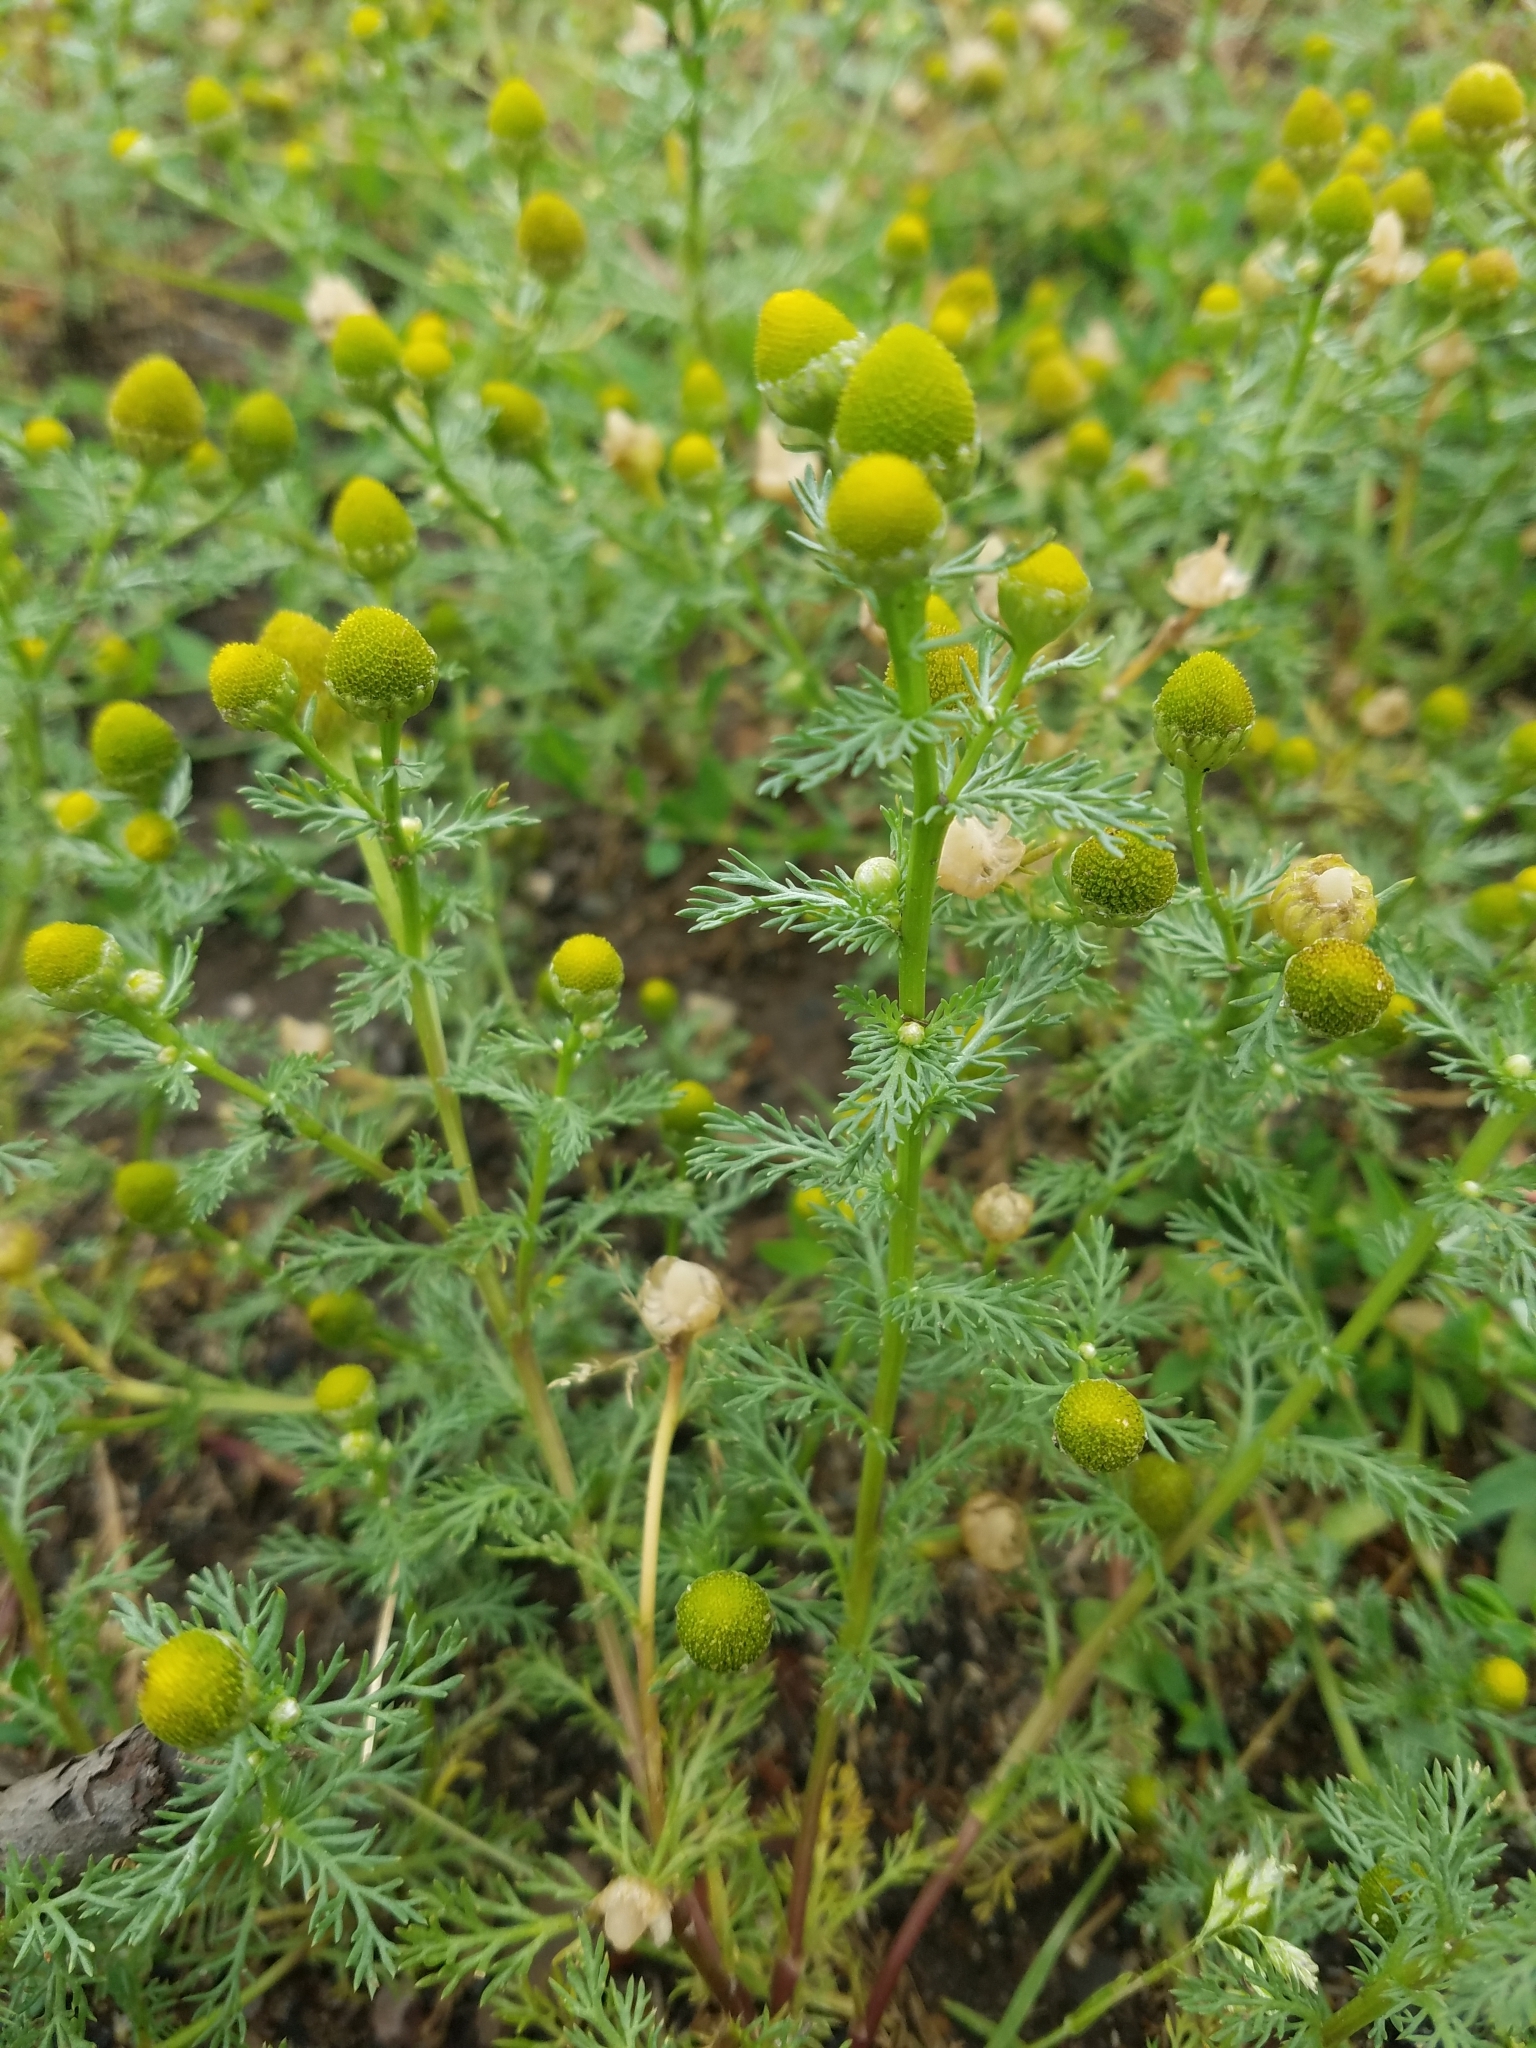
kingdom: Plantae
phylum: Tracheophyta
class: Magnoliopsida
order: Asterales
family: Asteraceae
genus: Matricaria
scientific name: Matricaria discoidea
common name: Disc mayweed
